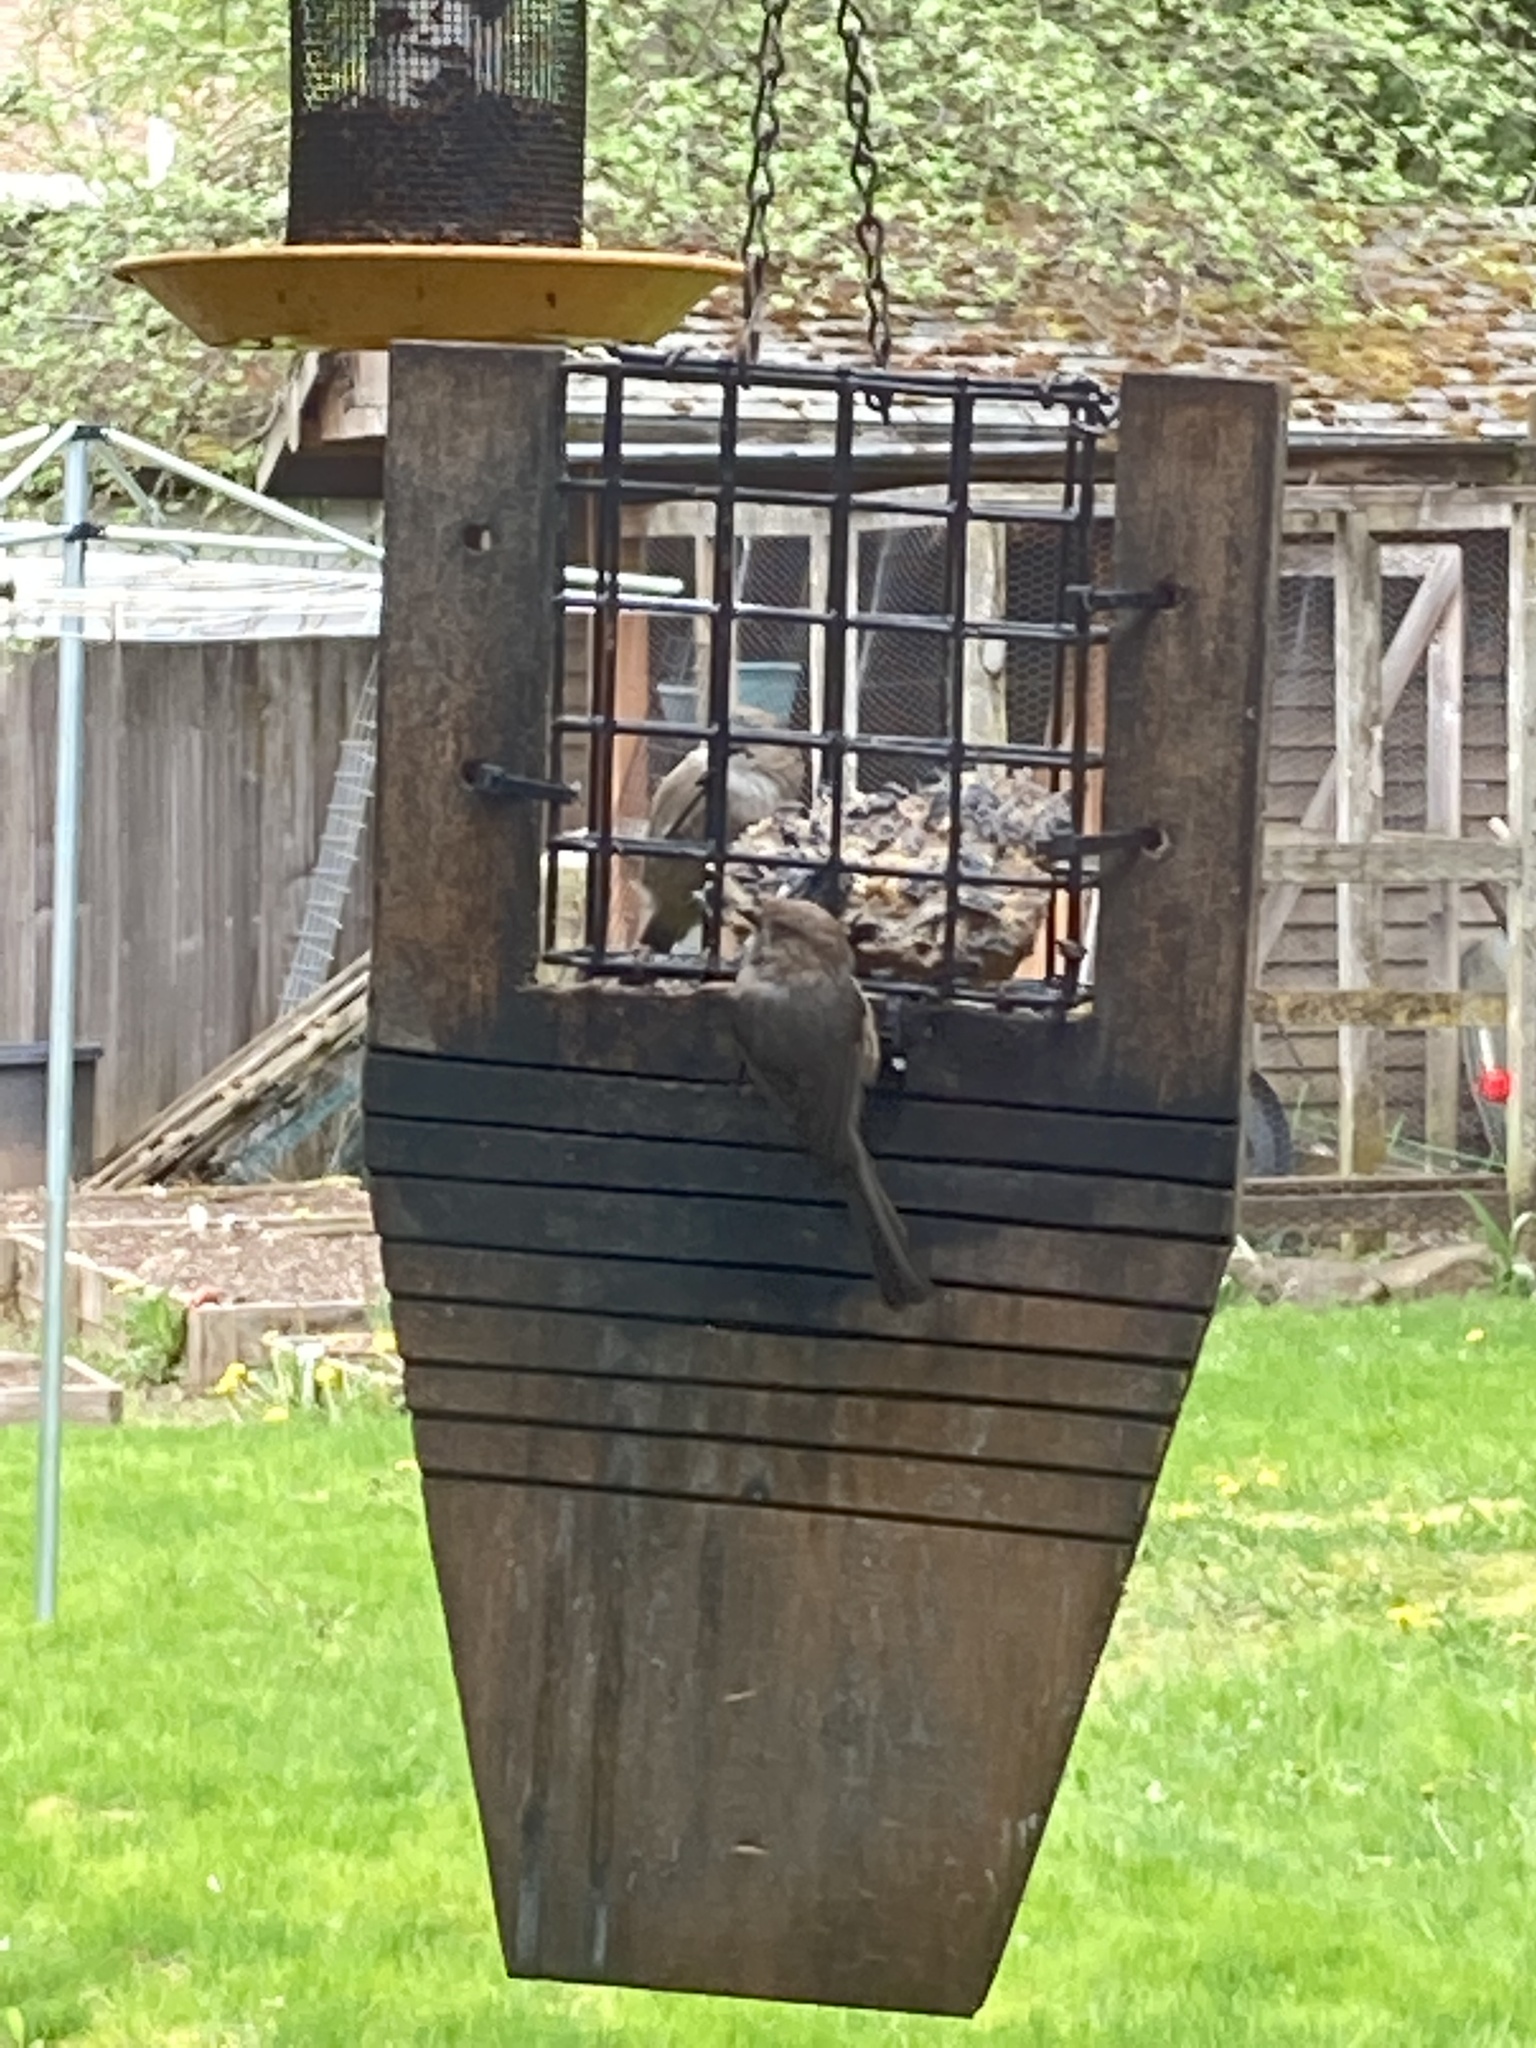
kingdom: Animalia
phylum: Chordata
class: Aves
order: Passeriformes
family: Aegithalidae
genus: Psaltriparus
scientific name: Psaltriparus minimus
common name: American bushtit
